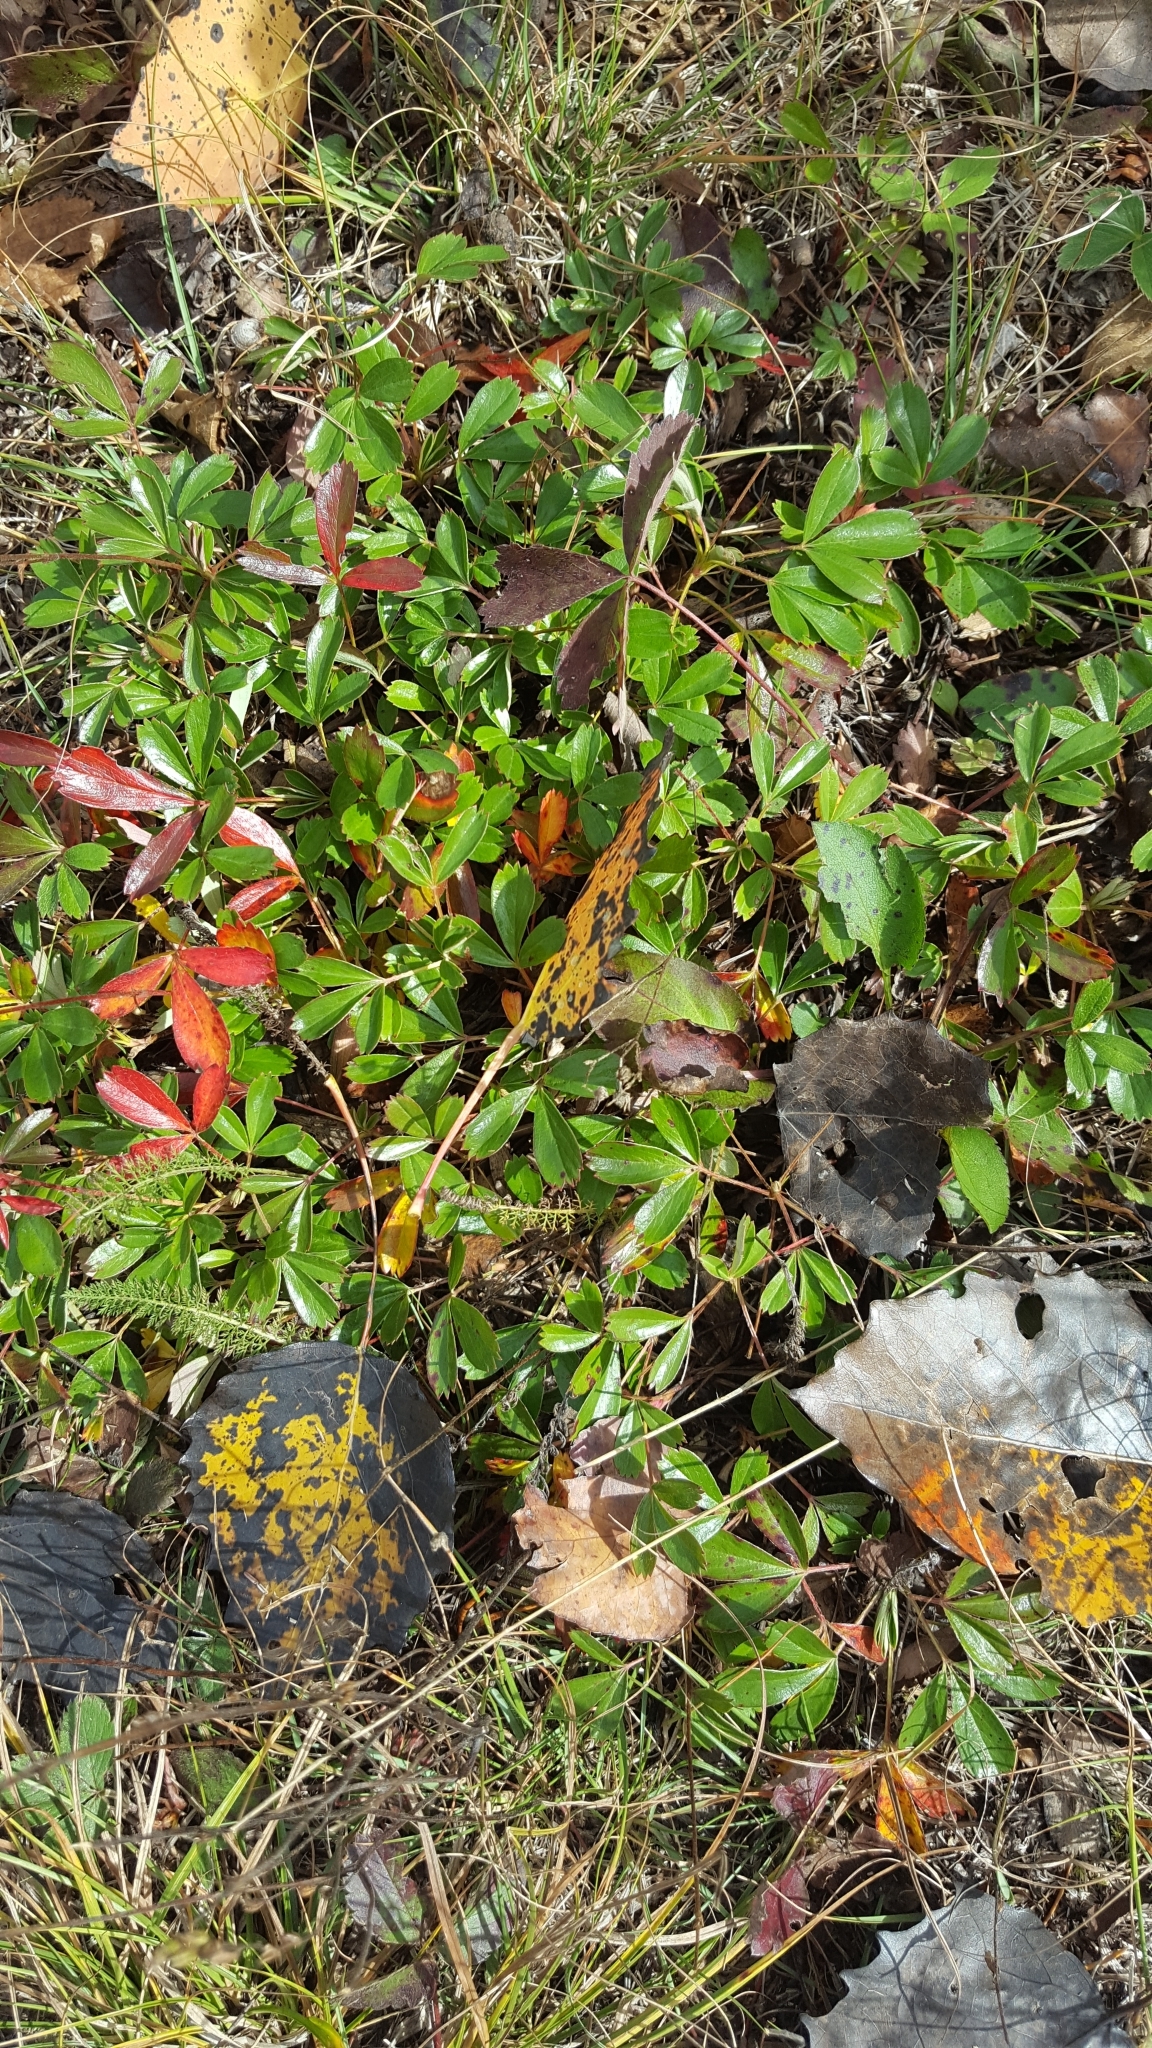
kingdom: Plantae
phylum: Tracheophyta
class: Magnoliopsida
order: Rosales
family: Rosaceae
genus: Sibbaldia
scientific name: Sibbaldia tridentata
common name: Three-toothed cinquefoil
